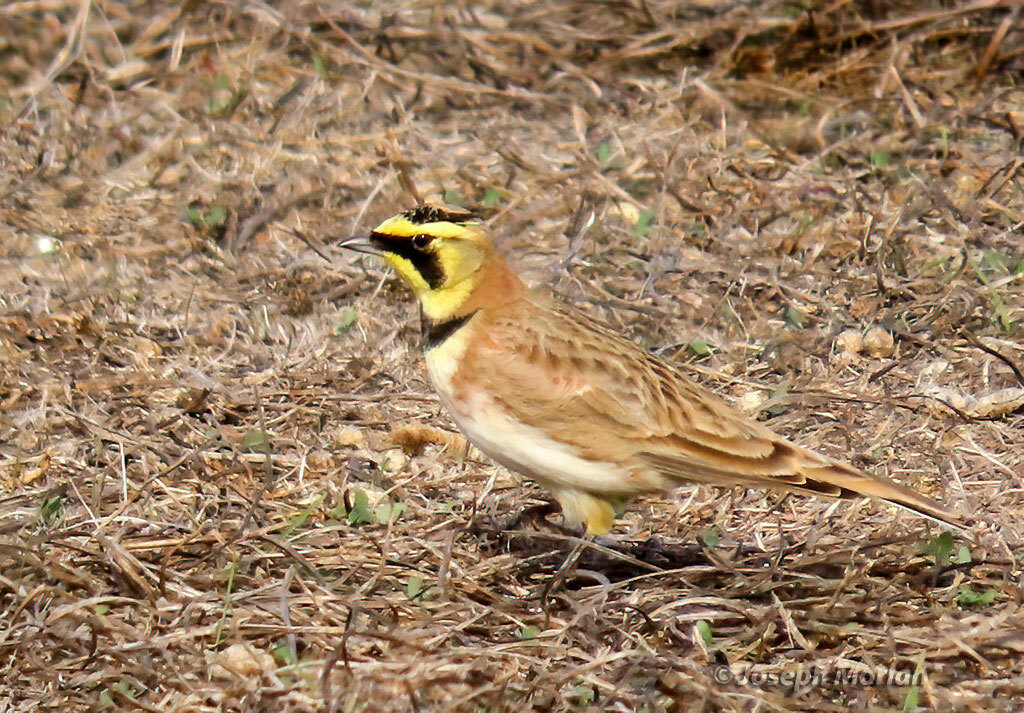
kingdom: Animalia
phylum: Chordata
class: Aves
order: Passeriformes
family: Alaudidae
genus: Eremophila
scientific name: Eremophila alpestris
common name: Horned lark
